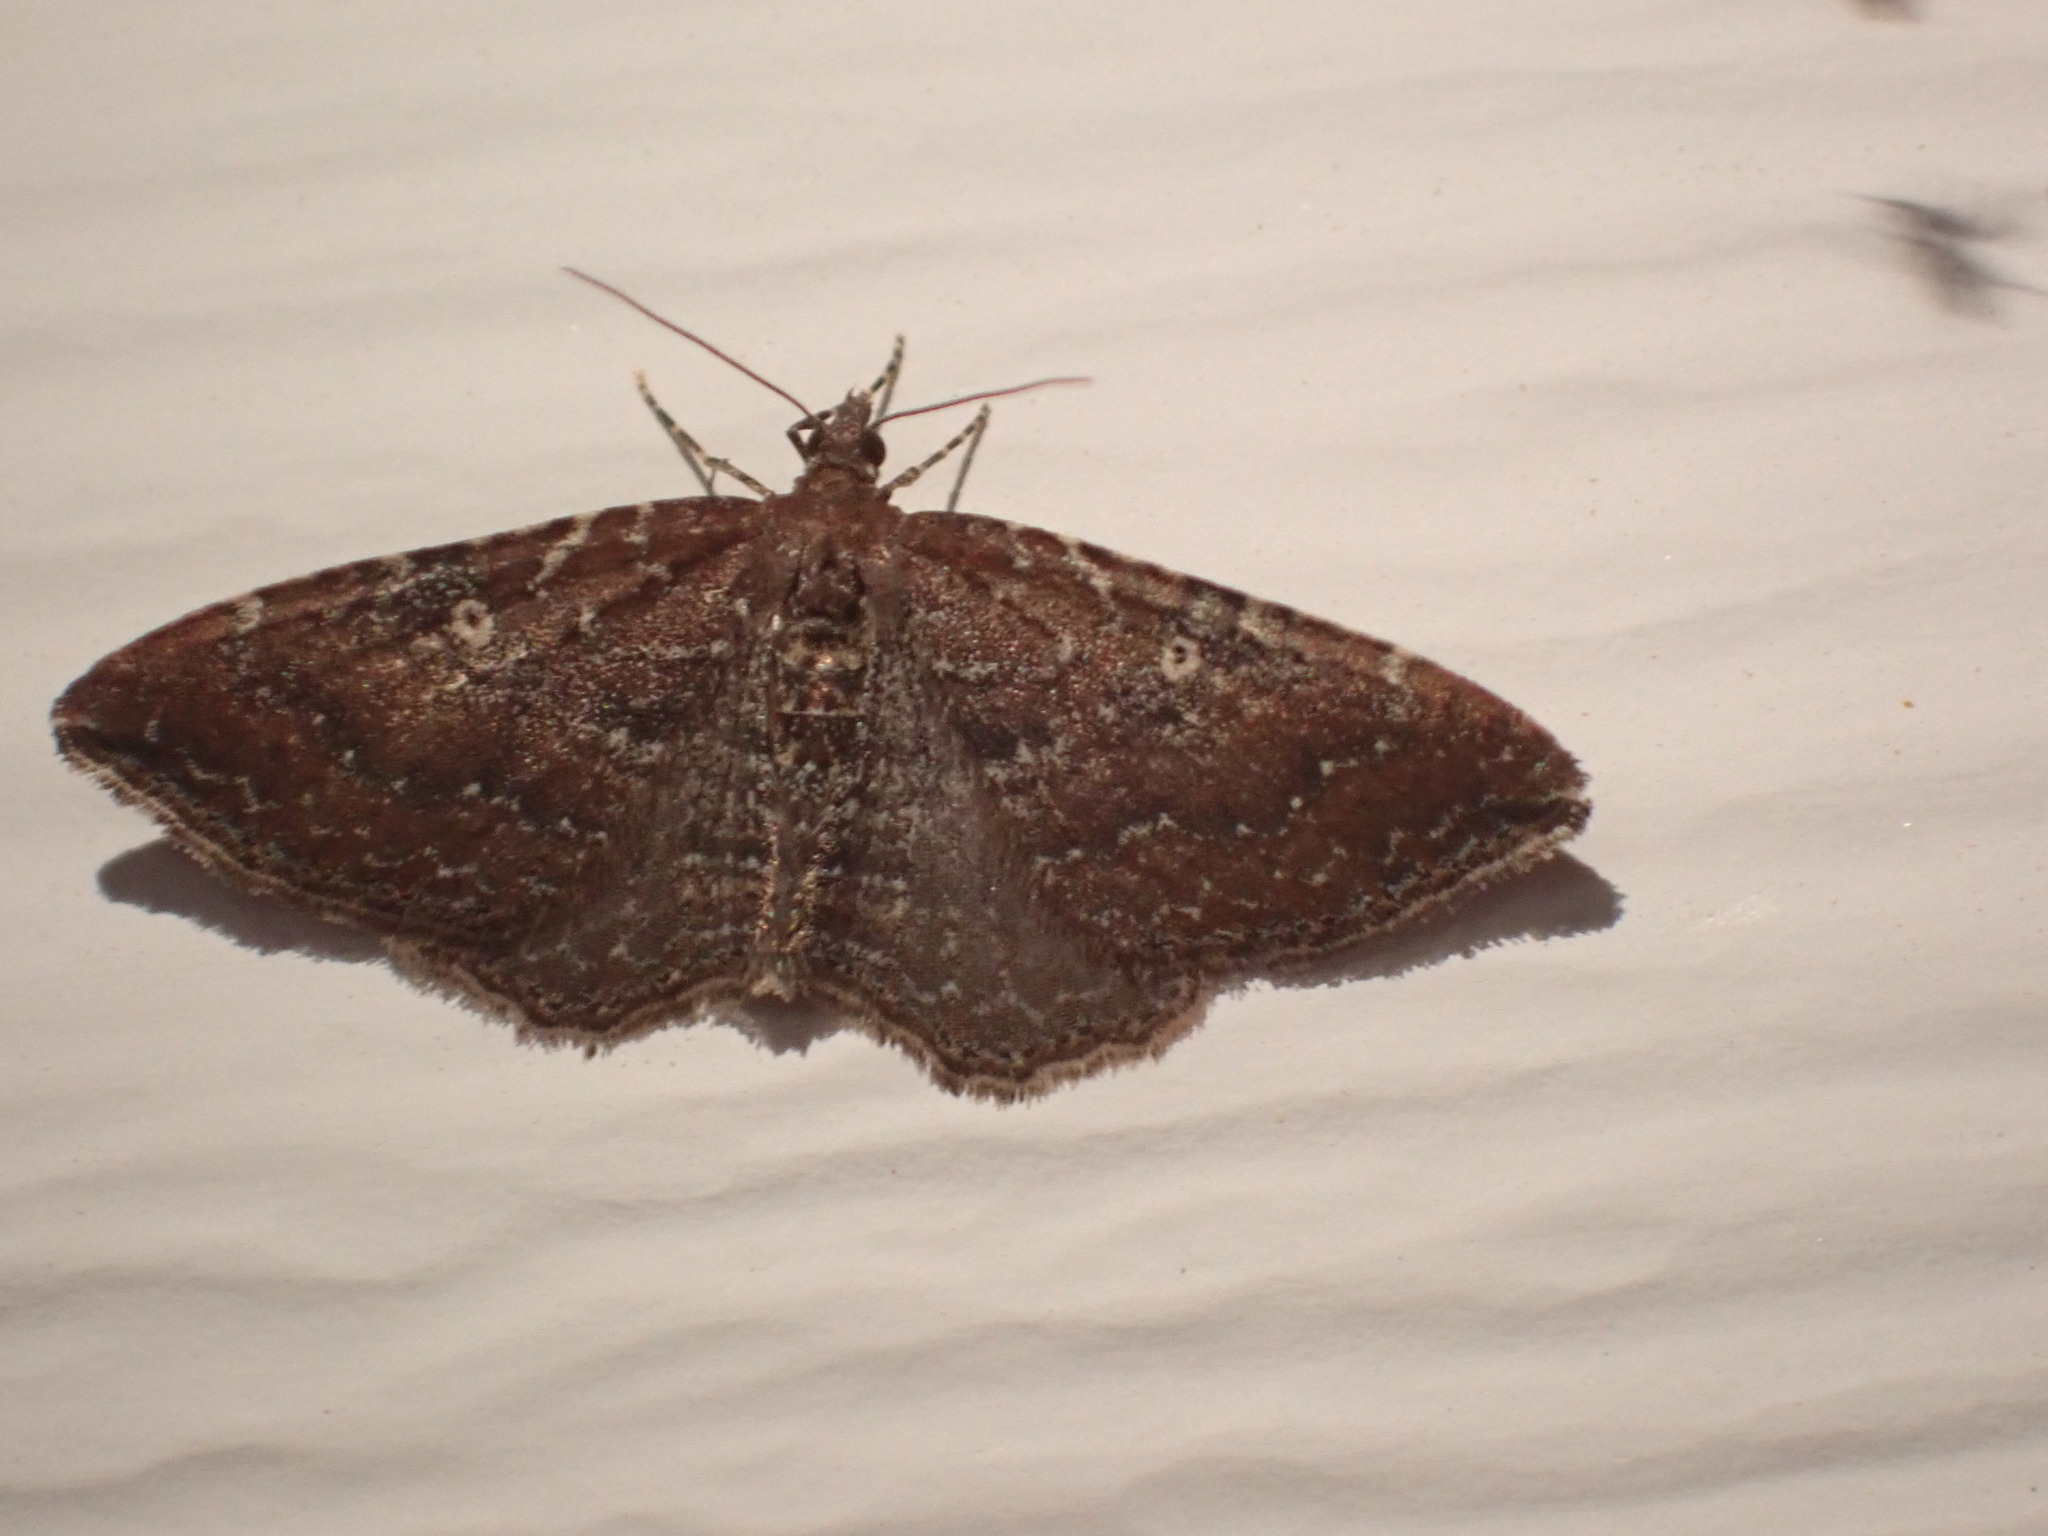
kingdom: Animalia
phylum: Arthropoda
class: Insecta
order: Lepidoptera
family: Geometridae
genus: Orthonama
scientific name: Orthonama obstipata
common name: The gem
